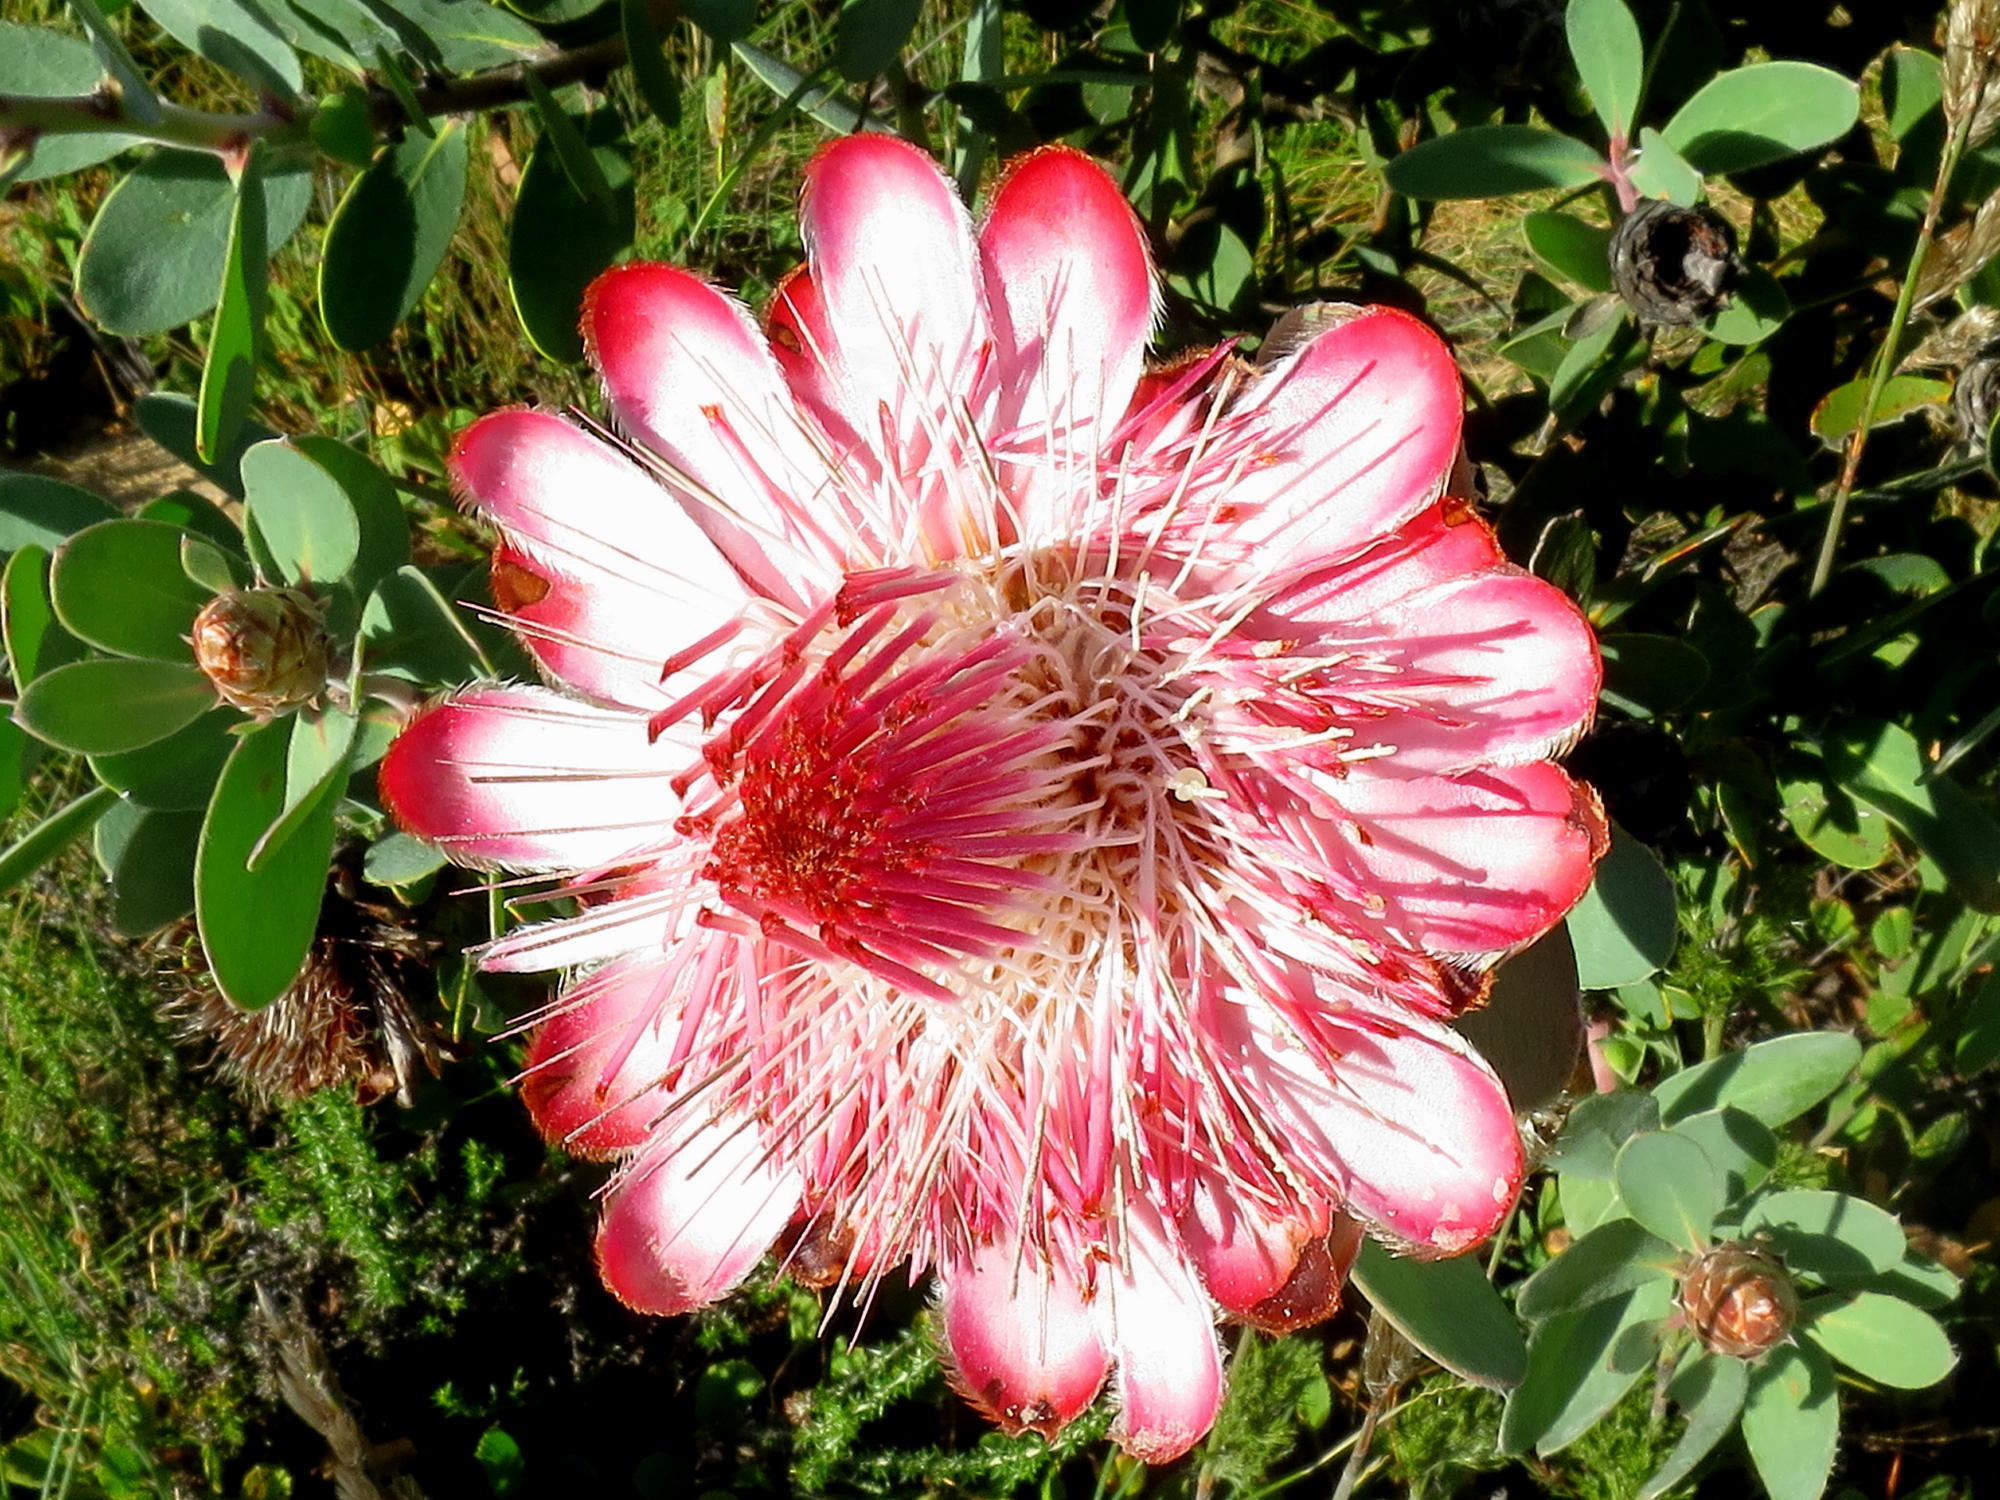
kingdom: Plantae
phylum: Tracheophyta
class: Magnoliopsida
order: Proteales
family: Proteaceae
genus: Protea
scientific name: Protea punctata
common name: Water sugarbush
